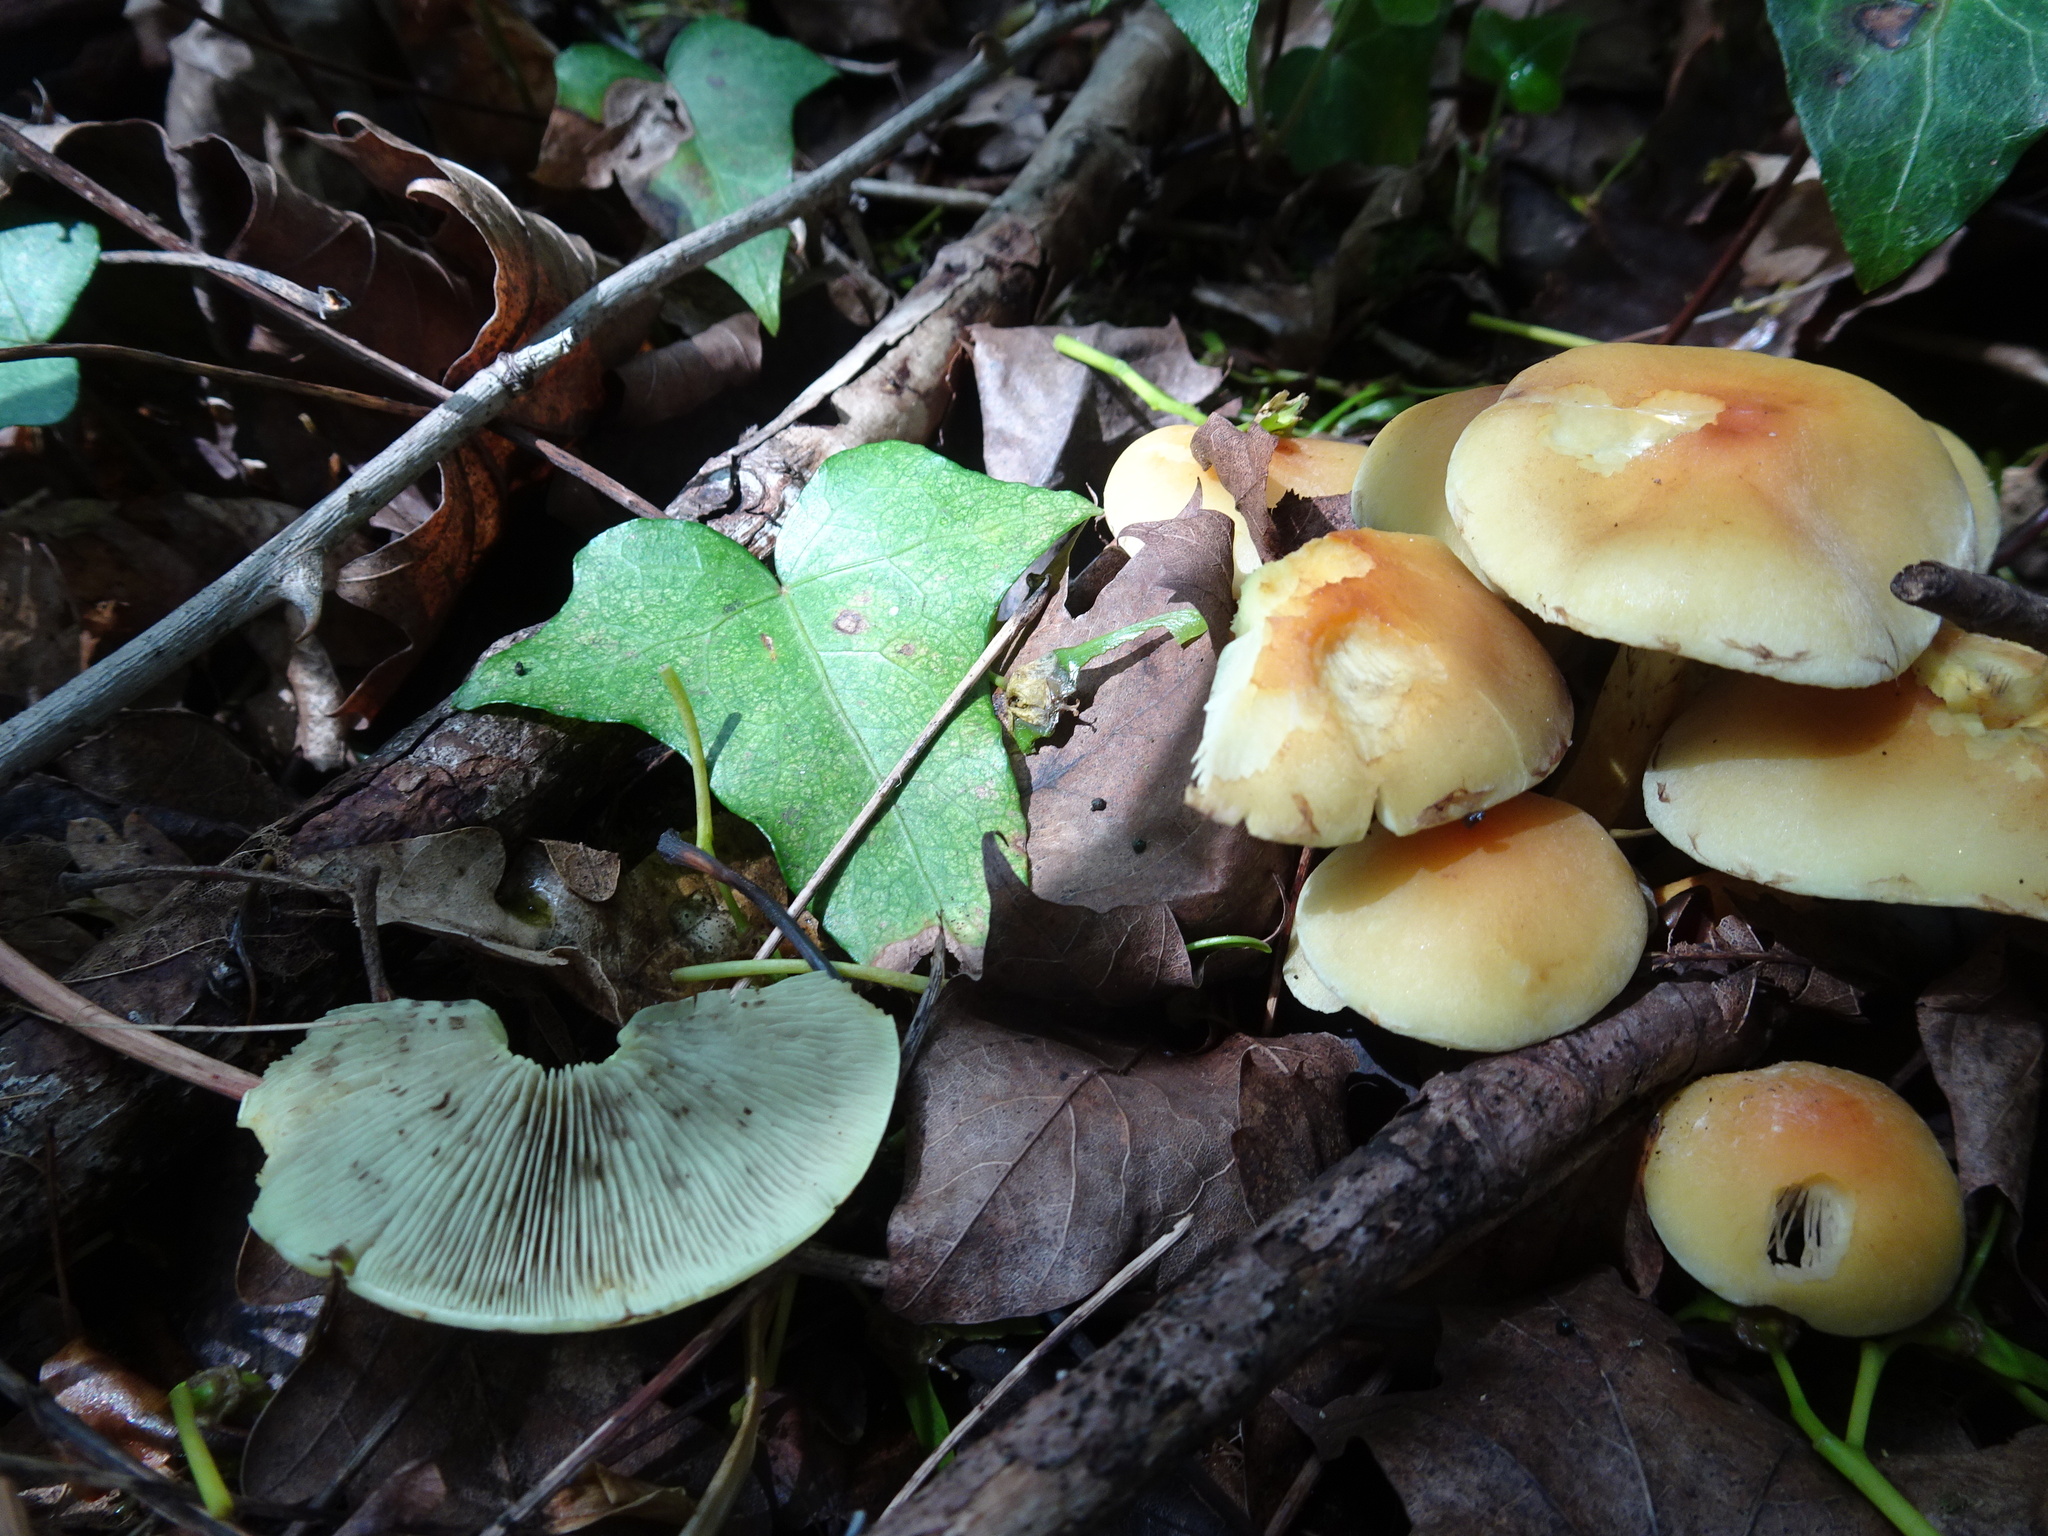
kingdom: Fungi
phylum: Basidiomycota
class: Agaricomycetes
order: Agaricales
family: Strophariaceae
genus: Hypholoma
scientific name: Hypholoma fasciculare
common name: Sulphur tuft
